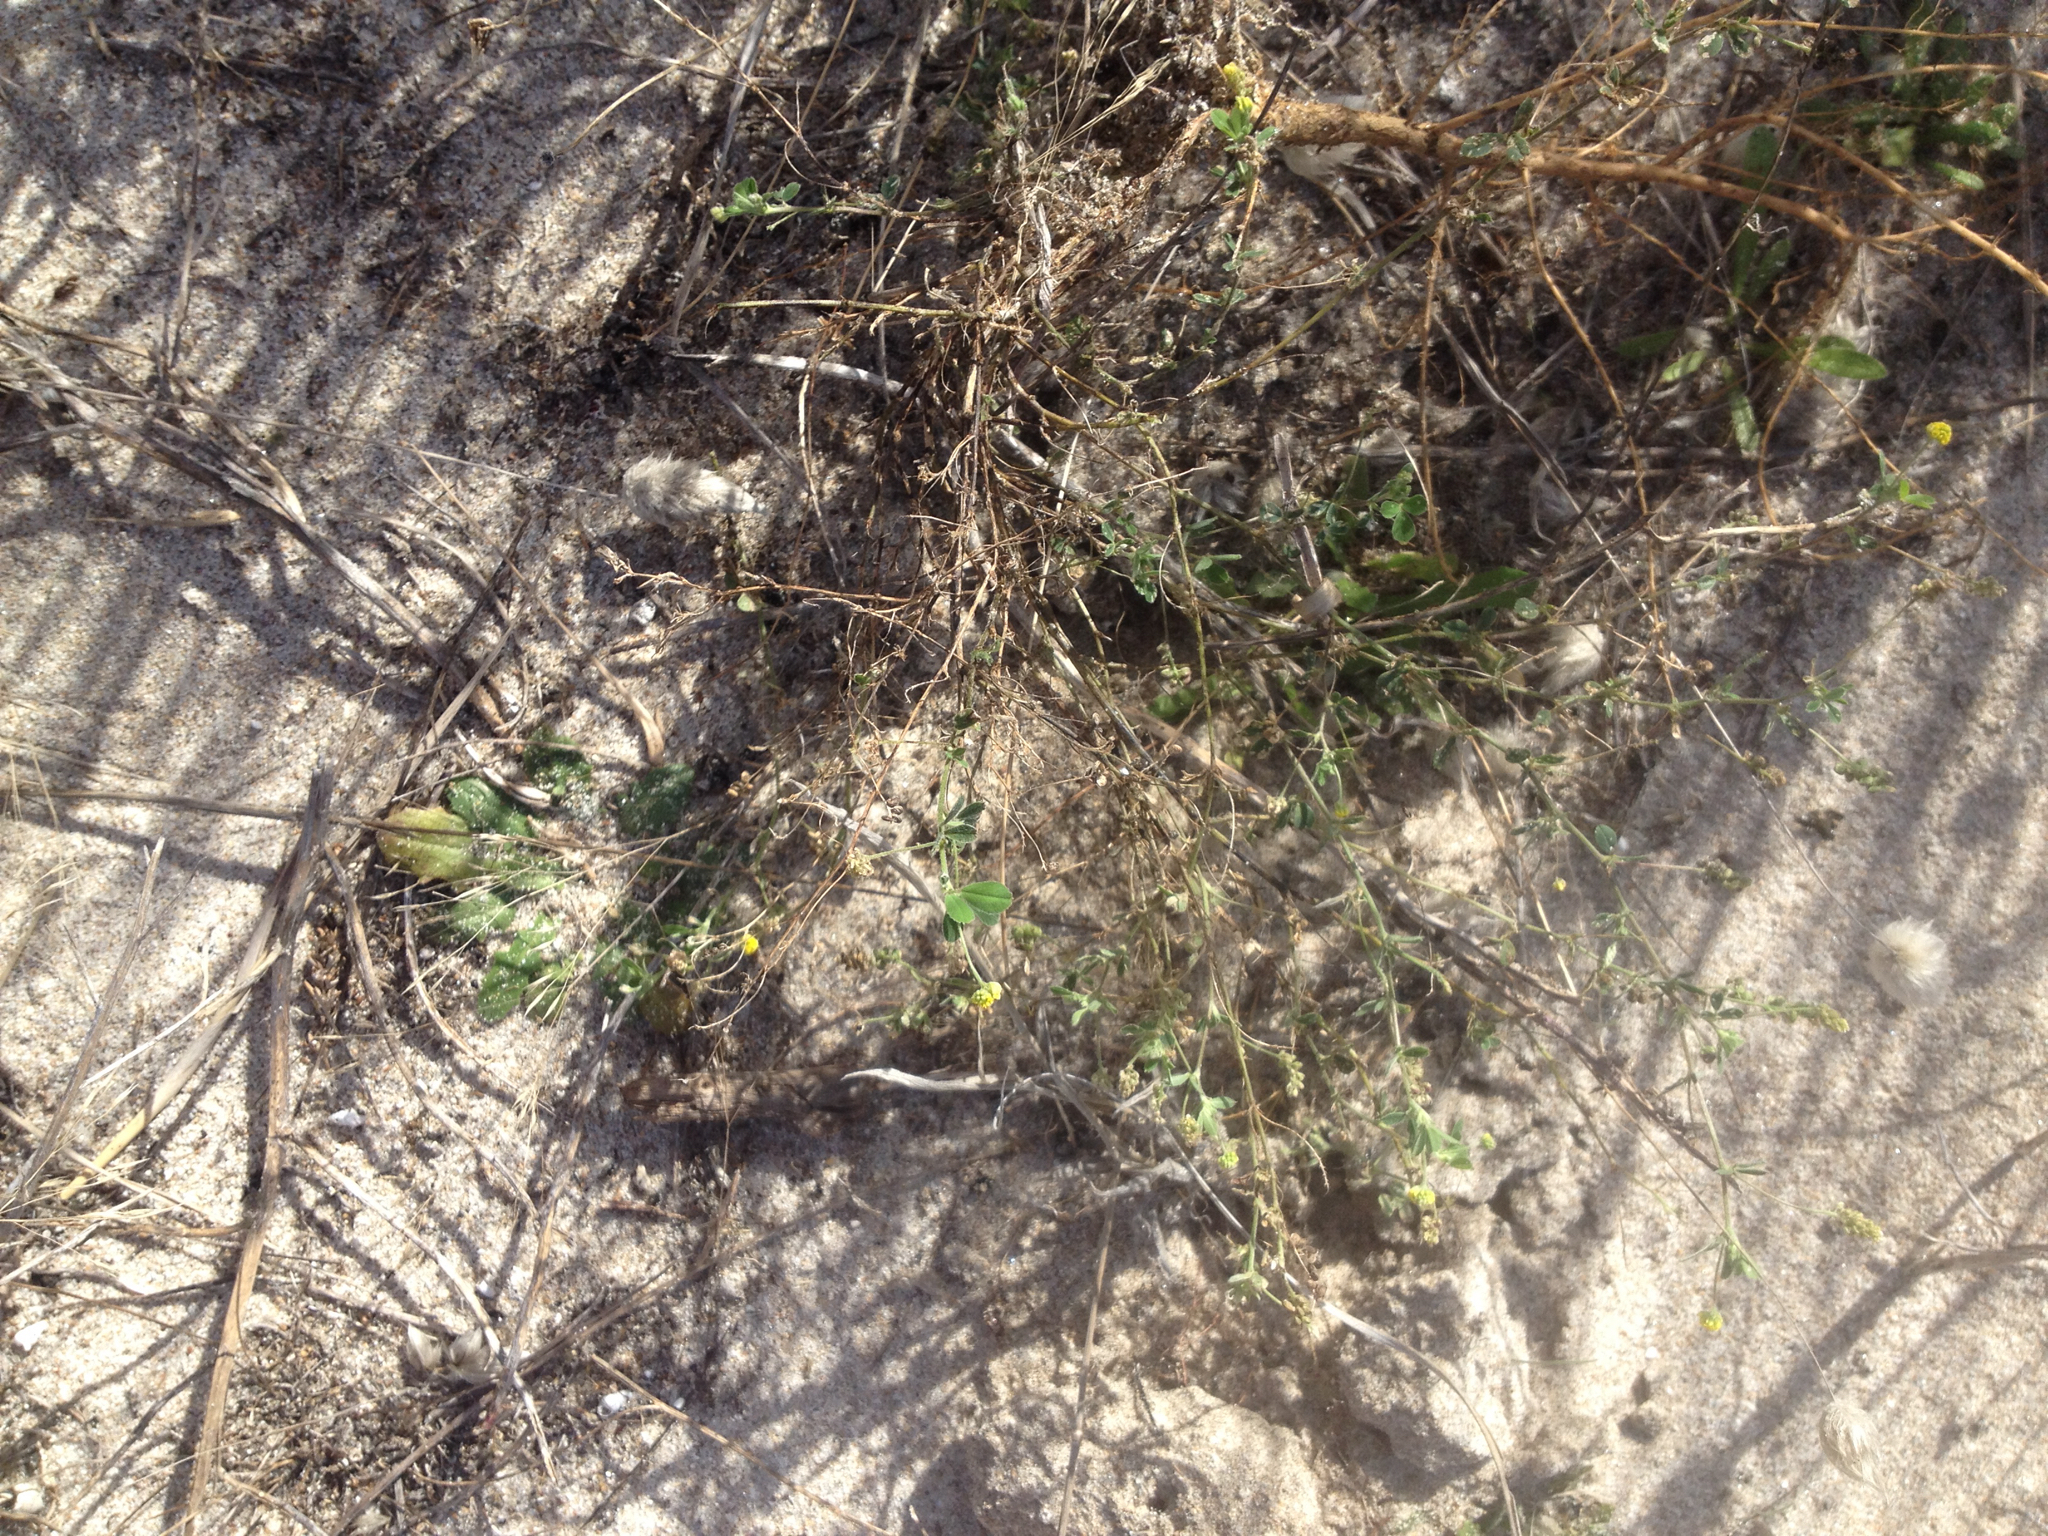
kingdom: Plantae
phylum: Tracheophyta
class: Magnoliopsida
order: Fabales
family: Fabaceae
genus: Medicago
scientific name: Medicago lupulina
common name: Black medick
